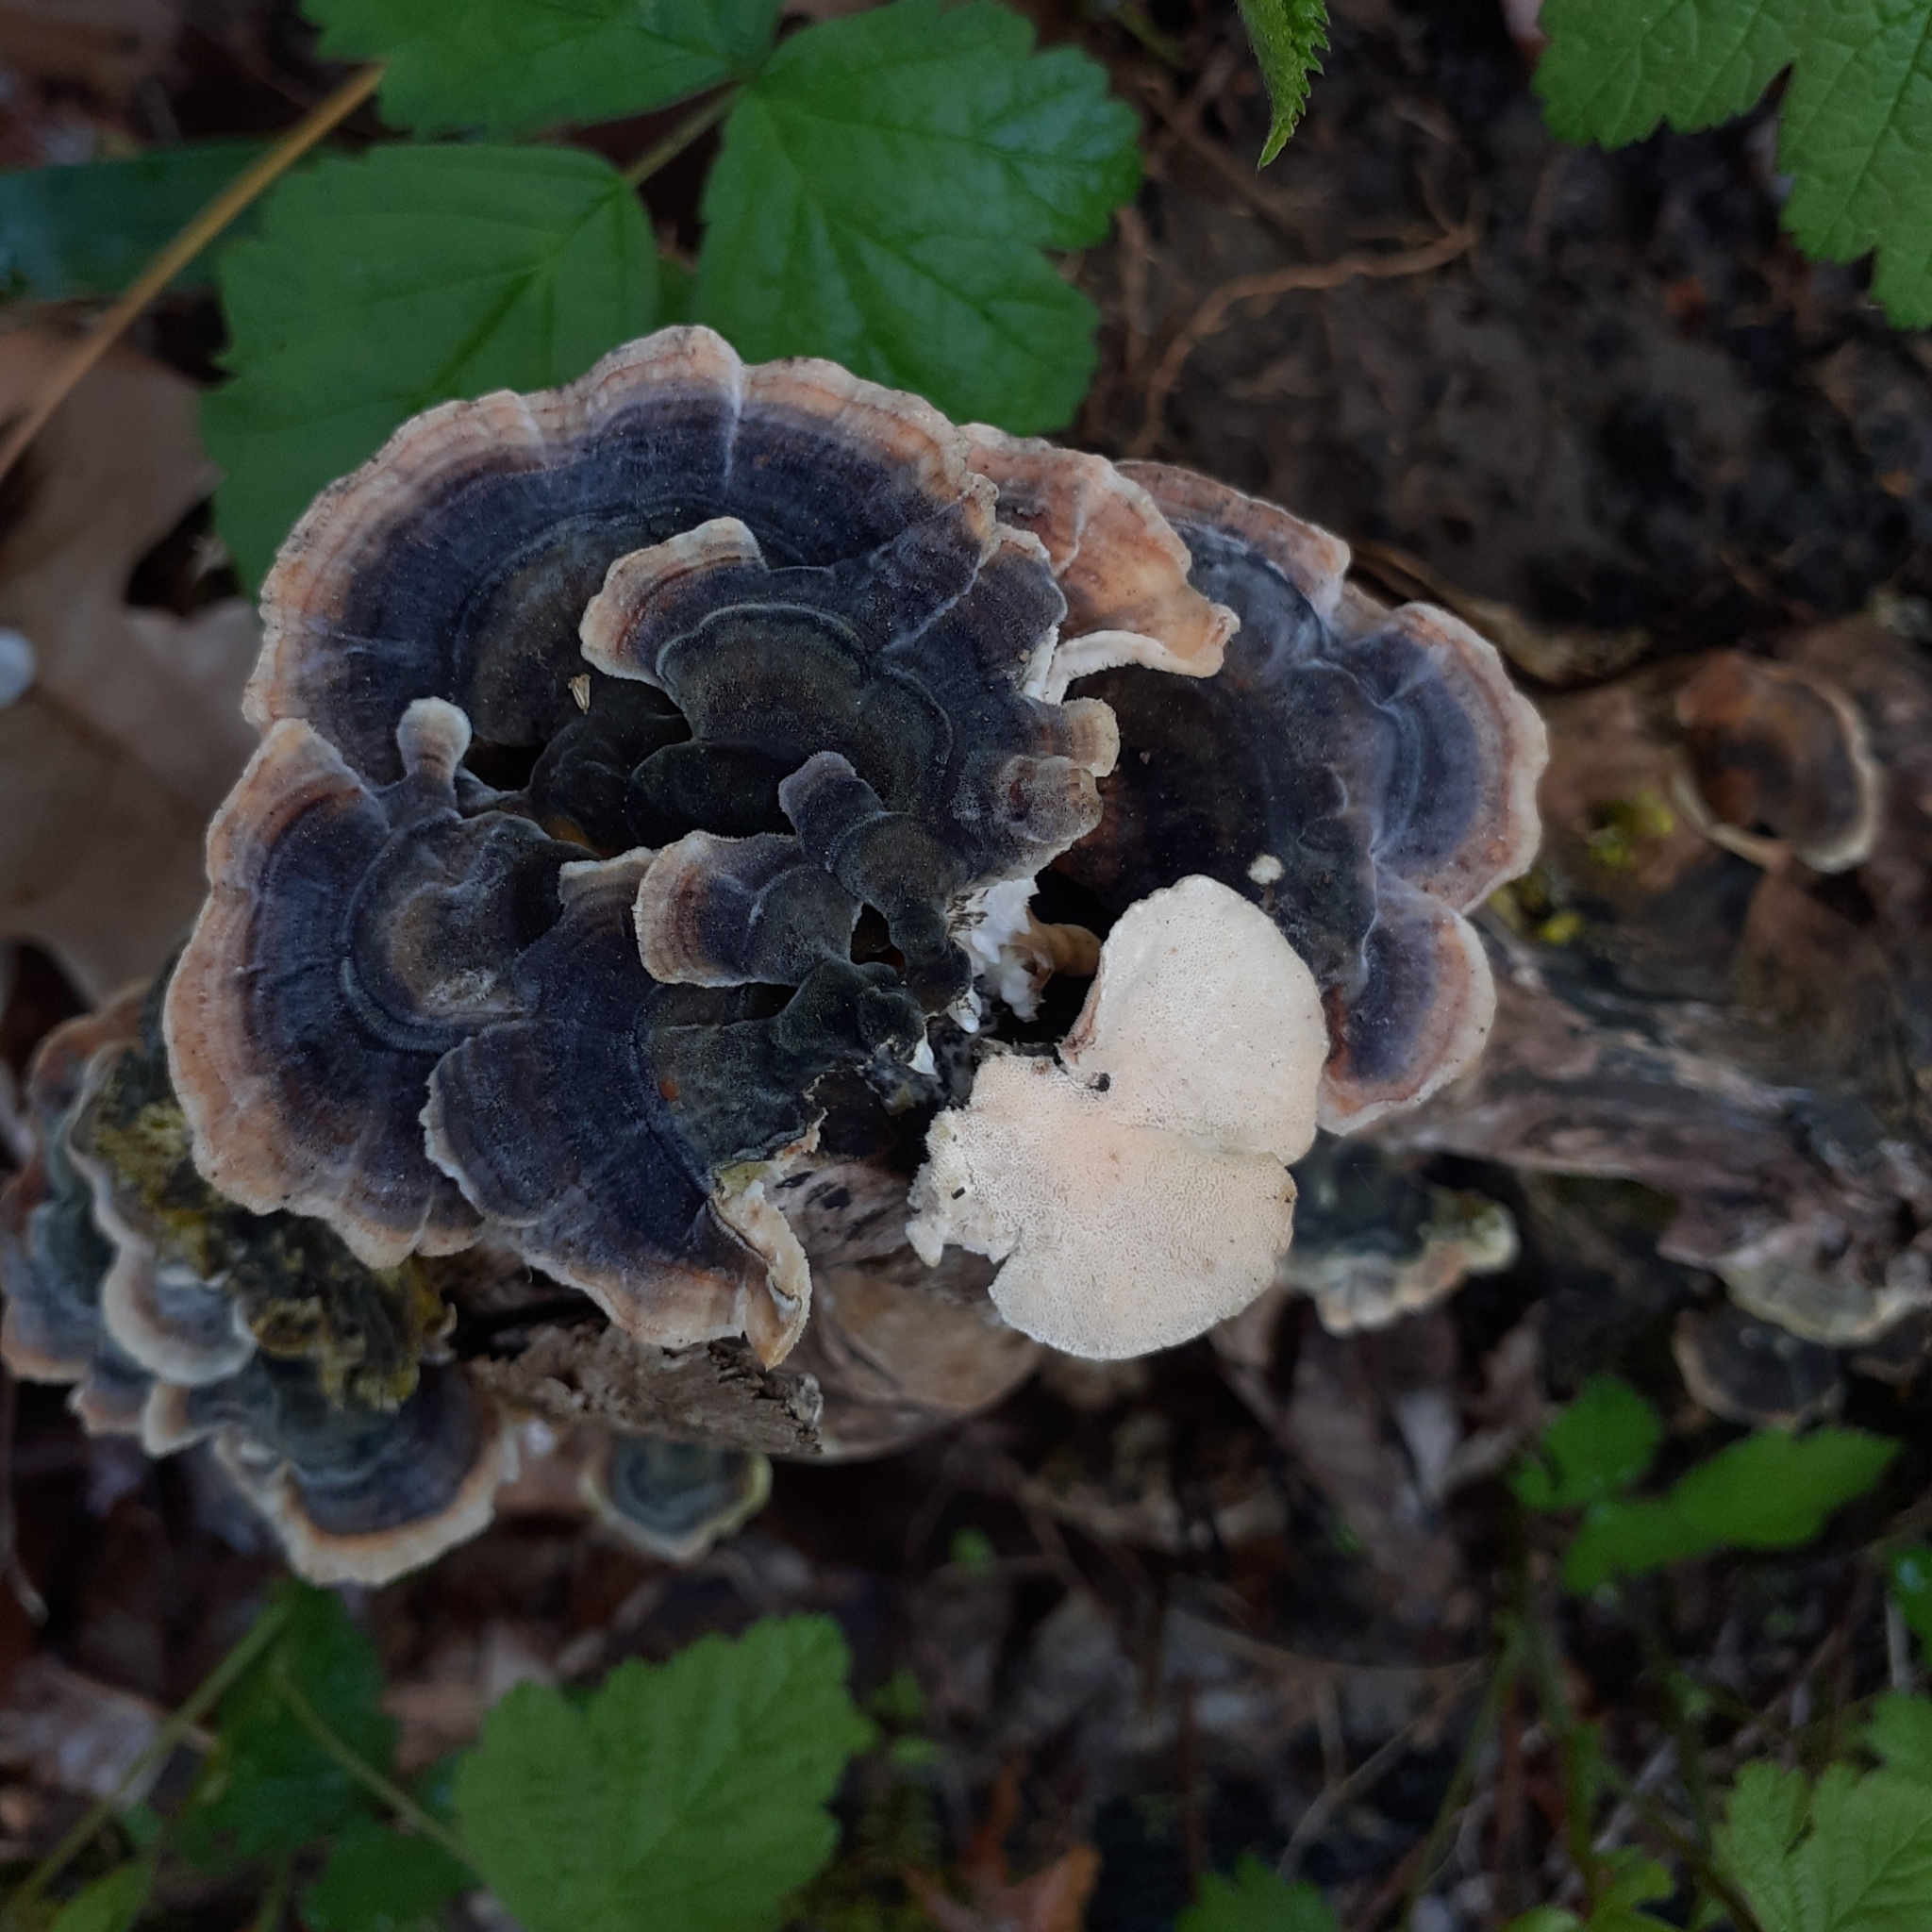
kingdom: Fungi
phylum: Basidiomycota
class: Agaricomycetes
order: Polyporales
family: Polyporaceae
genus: Trametes
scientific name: Trametes versicolor
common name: Turkeytail
